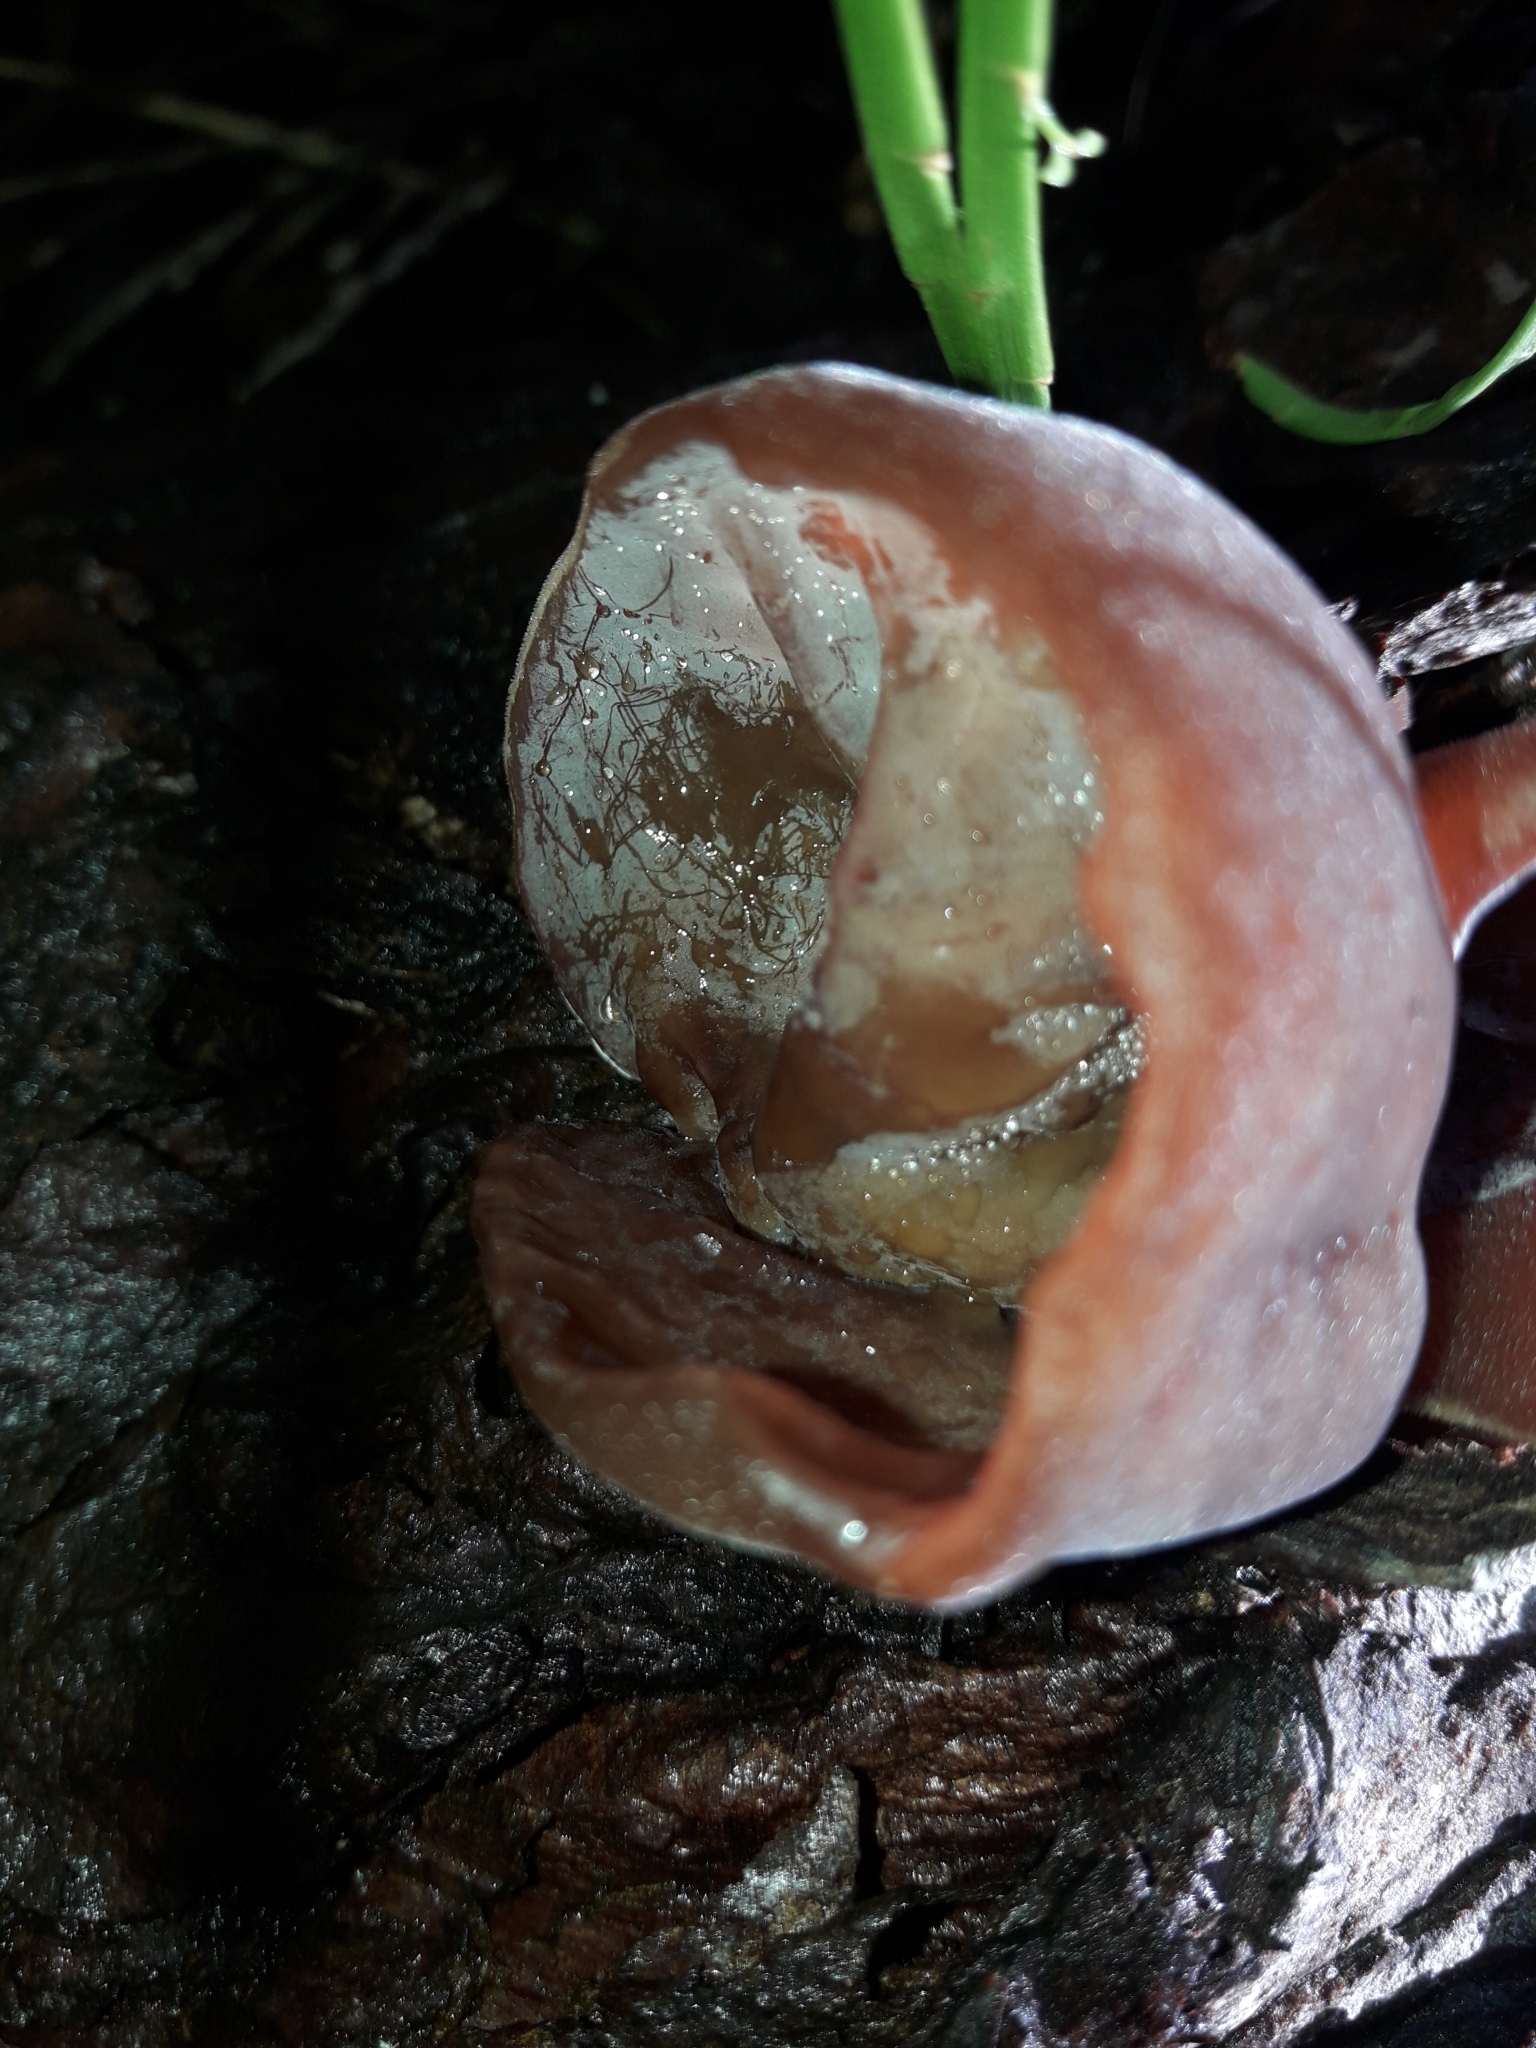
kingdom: Fungi
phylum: Basidiomycota
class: Agaricomycetes
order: Auriculariales
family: Auriculariaceae
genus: Auricularia
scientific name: Auricularia cornea
